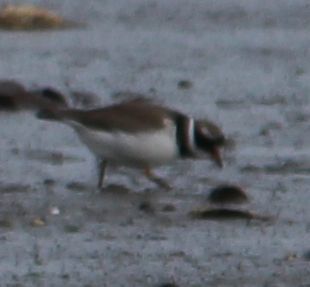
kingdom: Animalia
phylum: Chordata
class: Aves
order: Charadriiformes
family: Charadriidae
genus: Charadrius
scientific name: Charadrius hiaticula
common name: Common ringed plover
